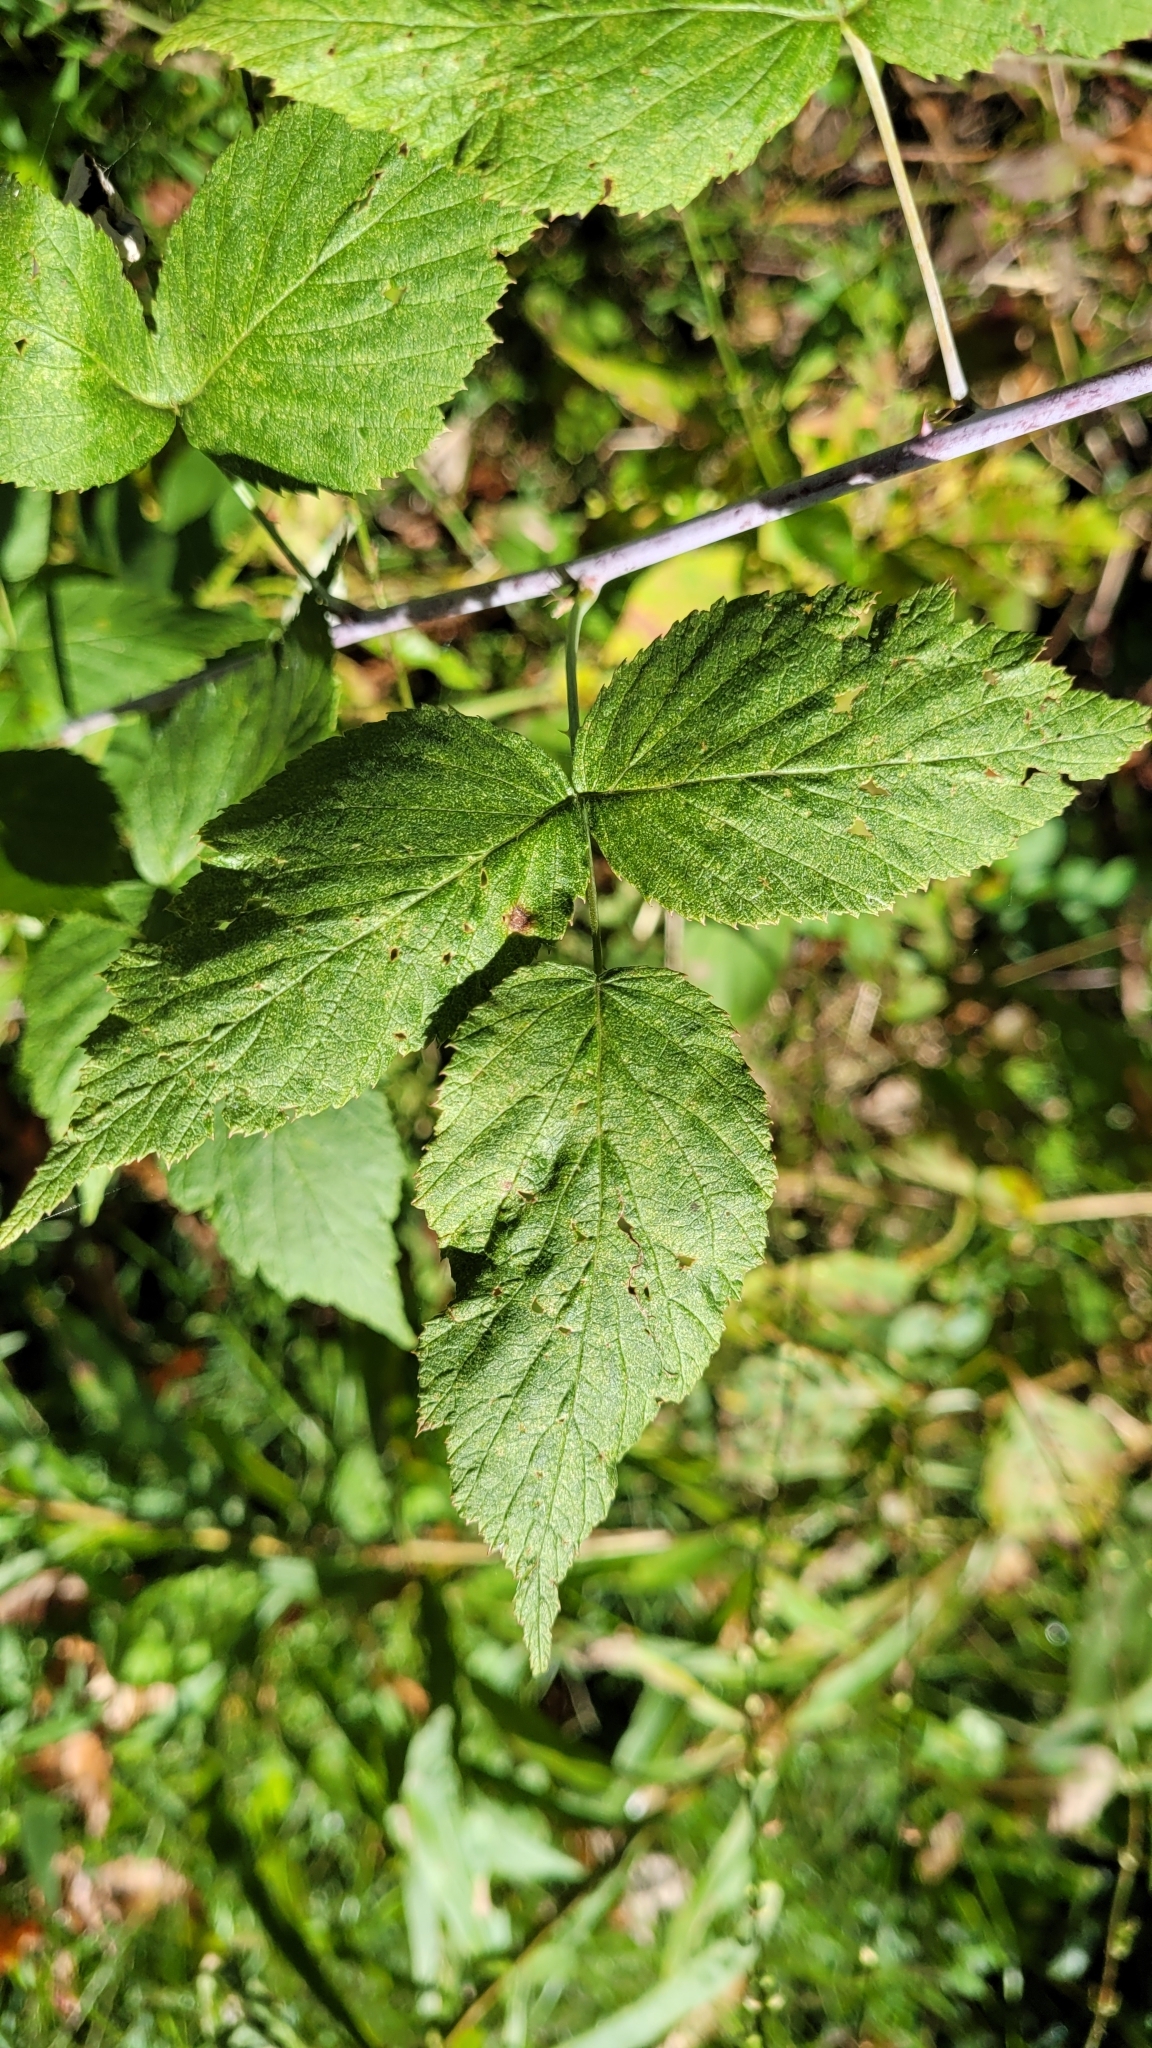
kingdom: Plantae
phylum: Tracheophyta
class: Magnoliopsida
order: Rosales
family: Rosaceae
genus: Rubus
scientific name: Rubus occidentalis
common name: Black raspberry
